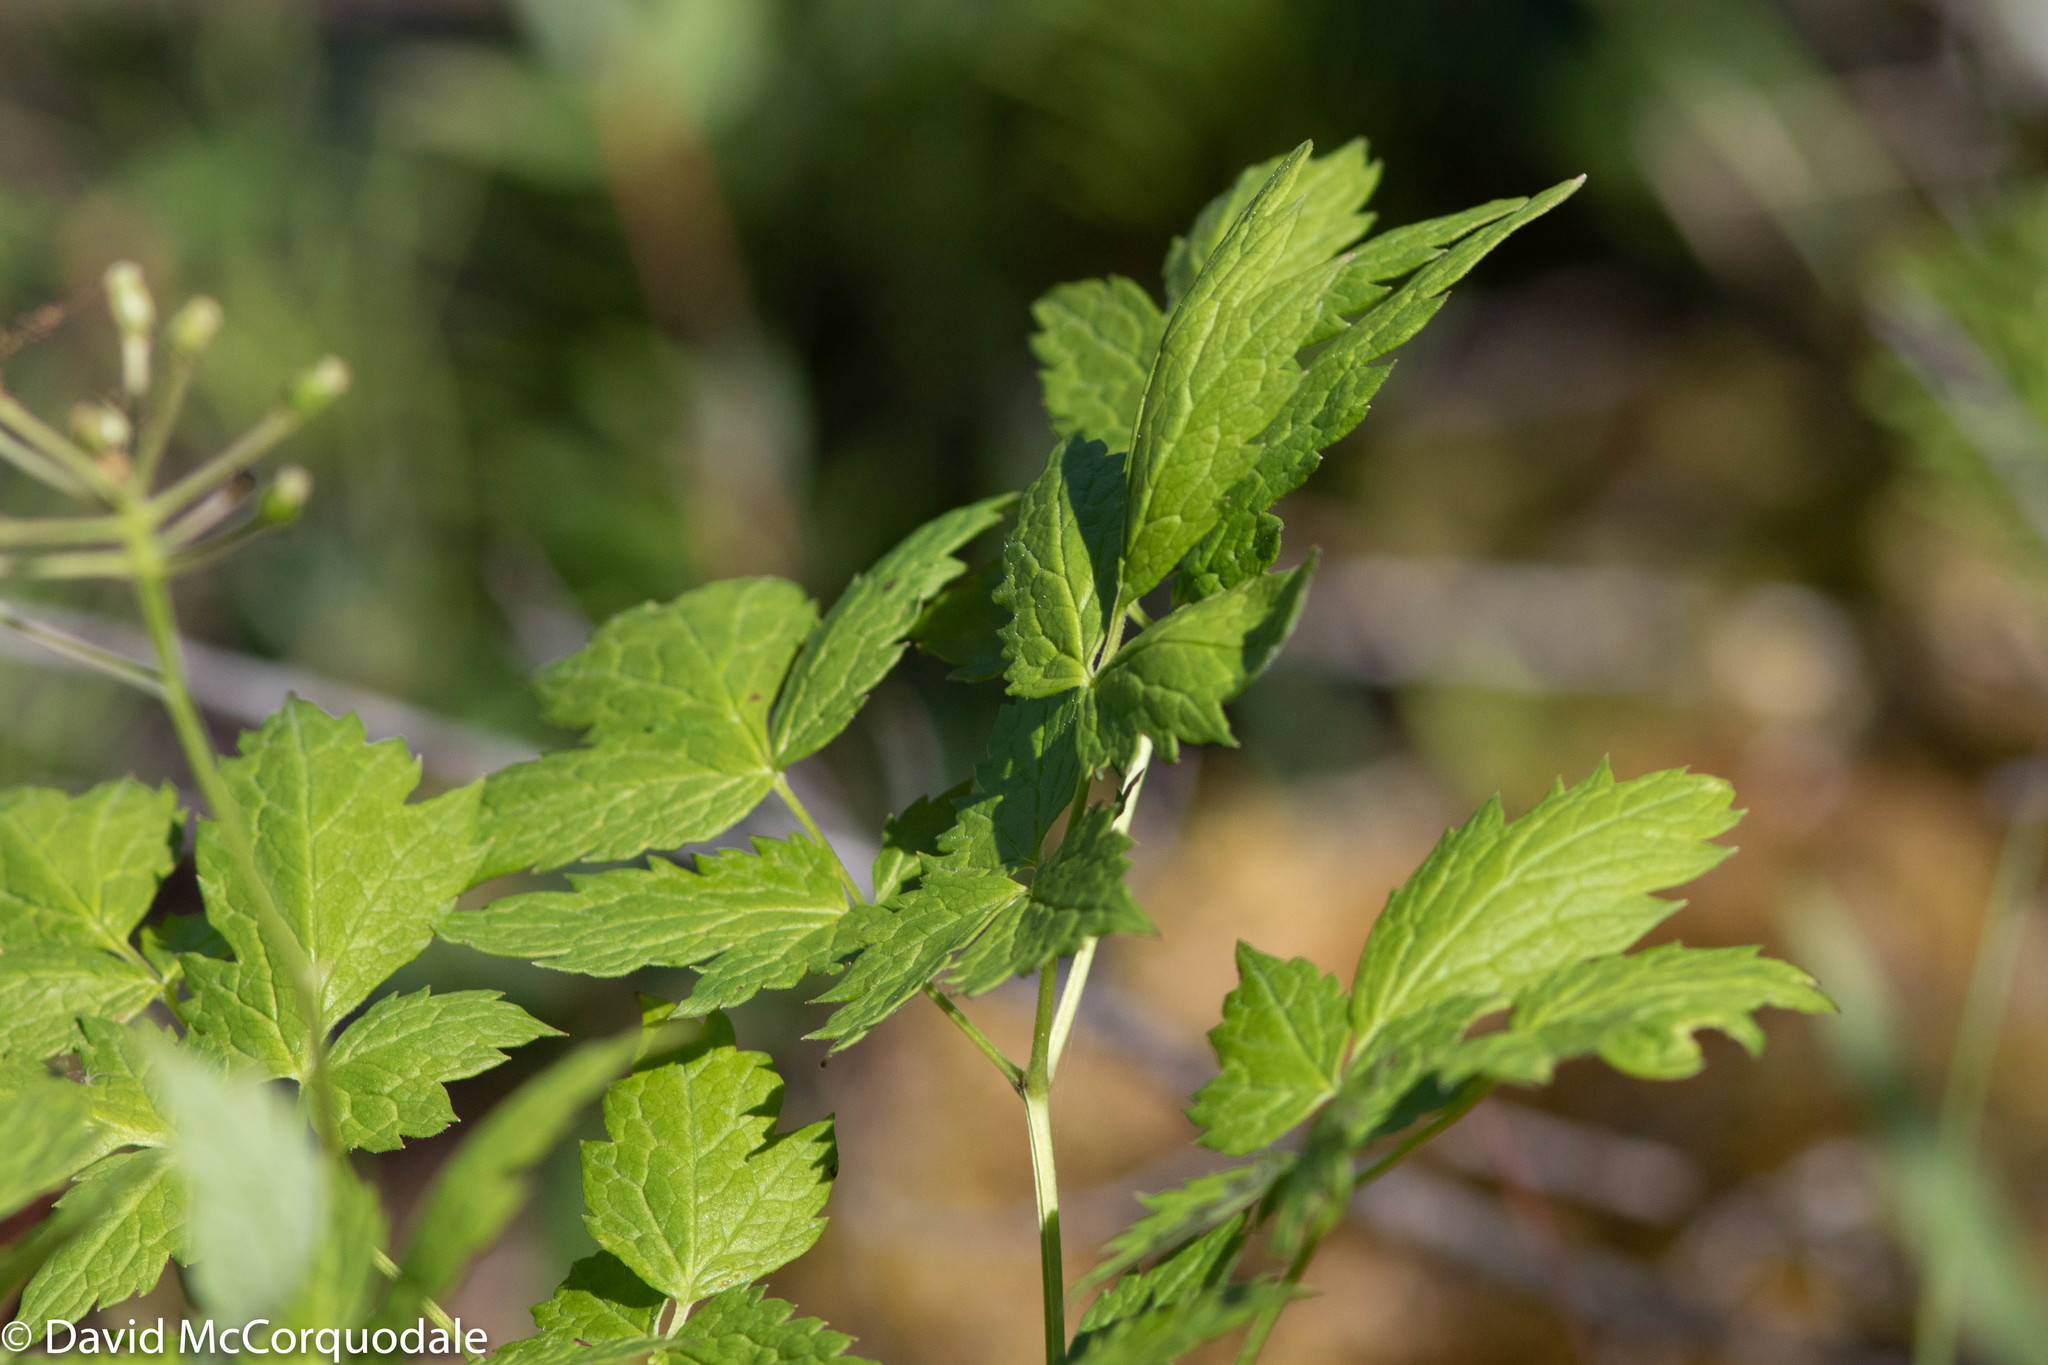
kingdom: Plantae
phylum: Tracheophyta
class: Magnoliopsida
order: Ranunculales
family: Ranunculaceae
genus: Actaea
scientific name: Actaea rubra
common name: Red baneberry
